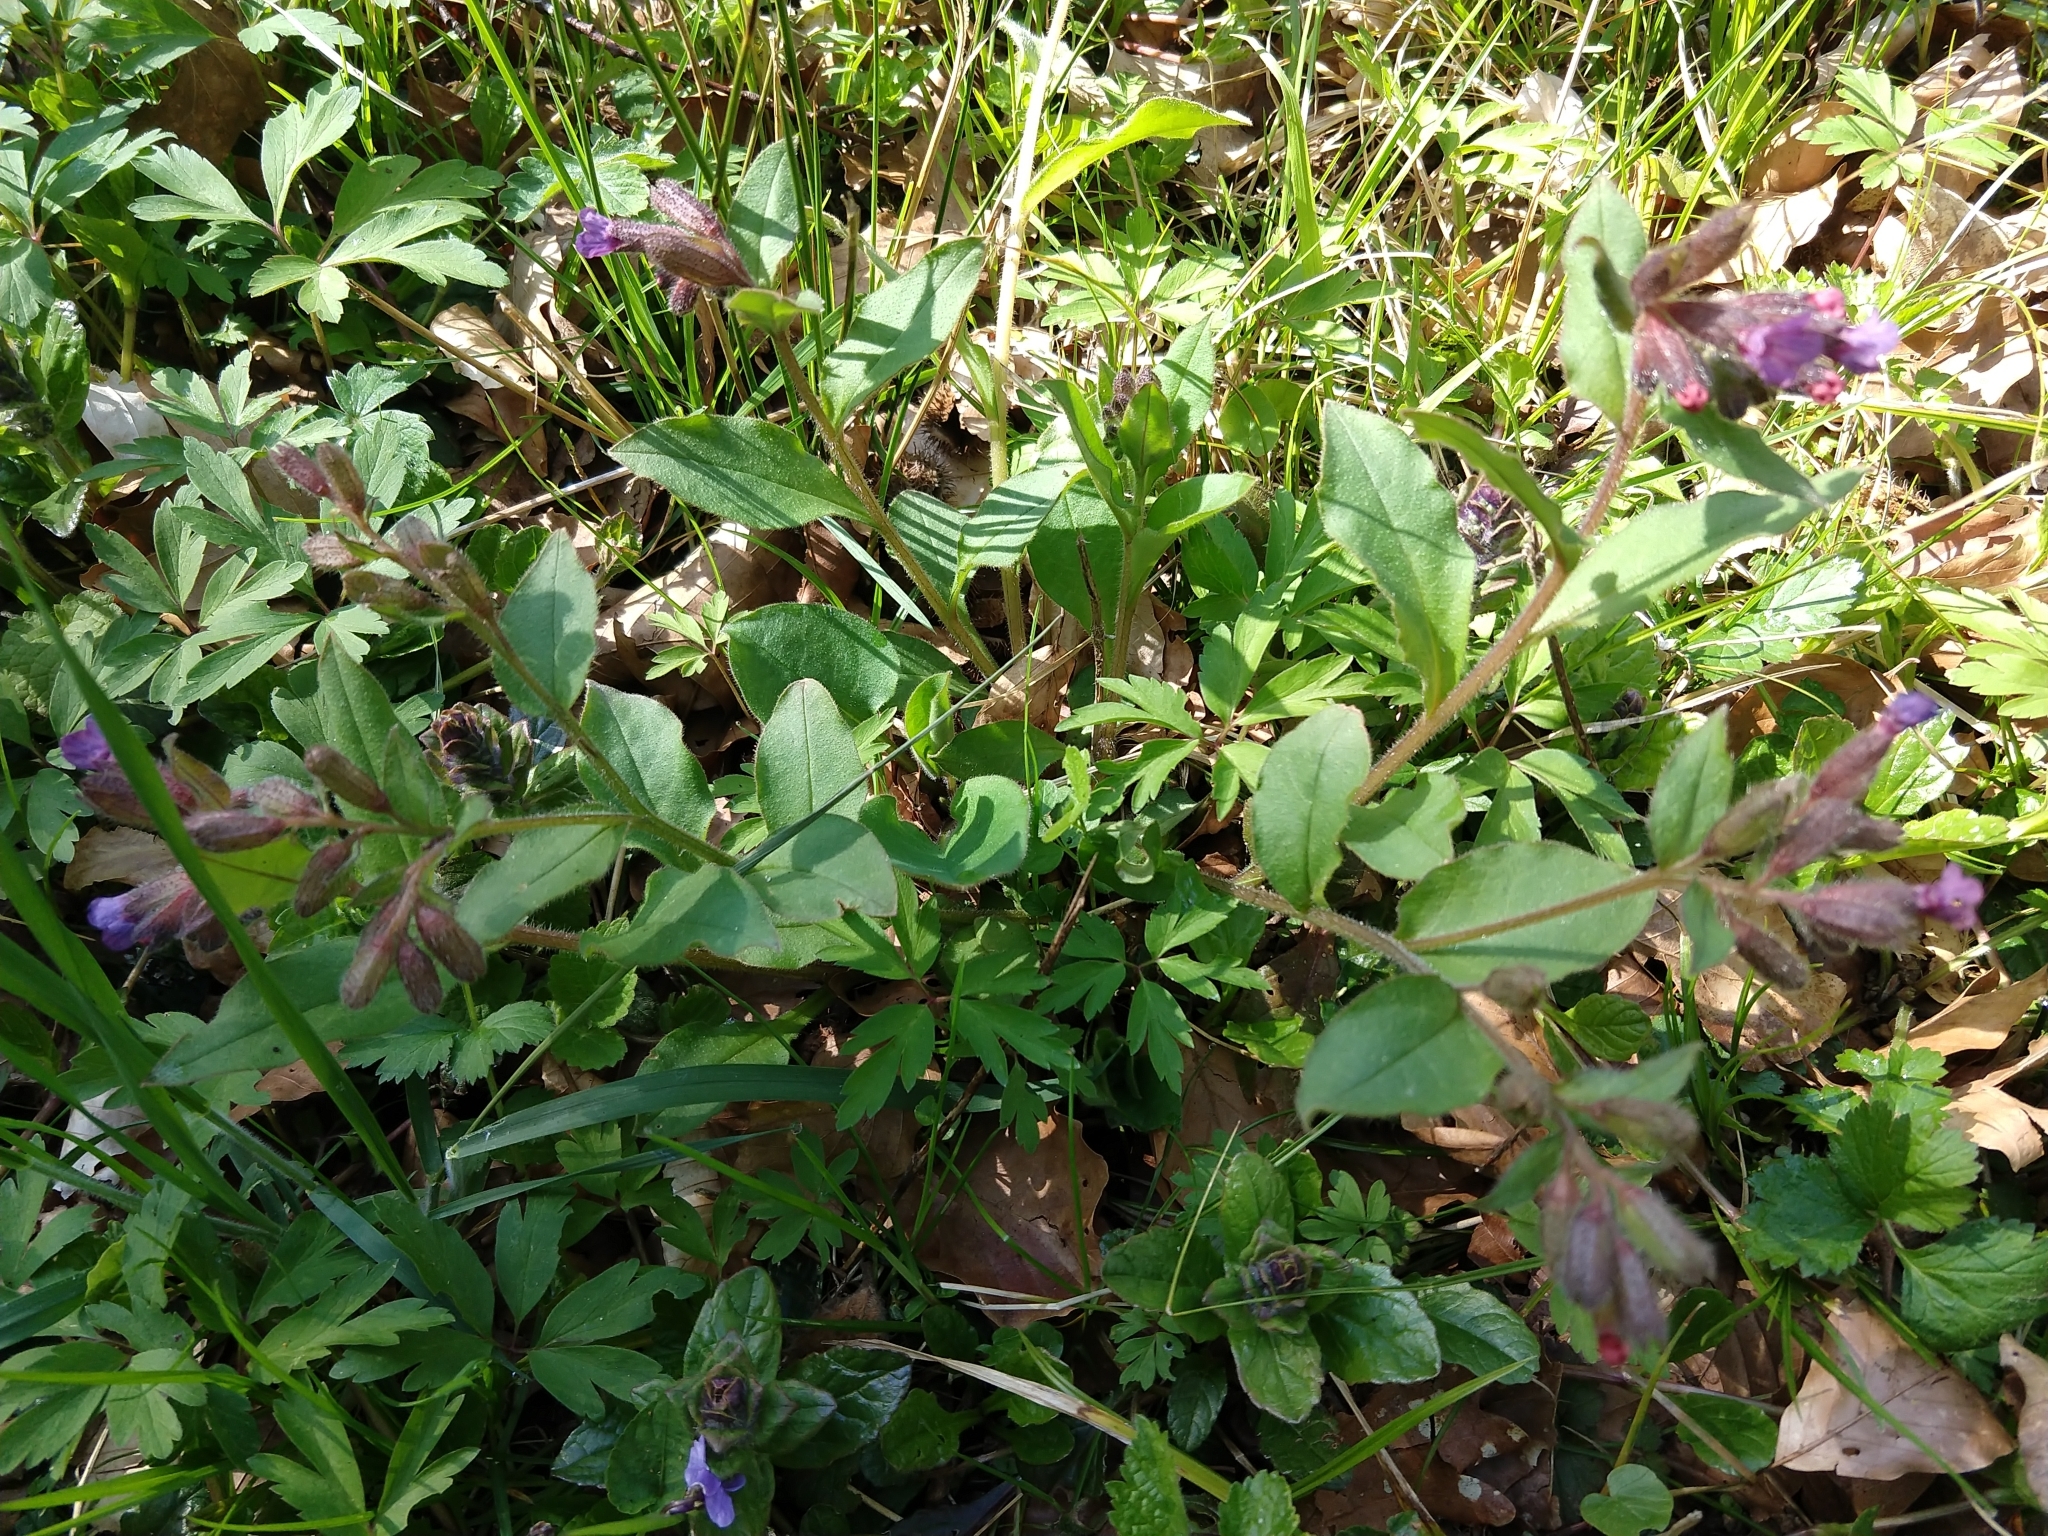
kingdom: Plantae
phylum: Tracheophyta
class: Magnoliopsida
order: Boraginales
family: Boraginaceae
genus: Pulmonaria
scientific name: Pulmonaria obscura
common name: Suffolk lungwort
